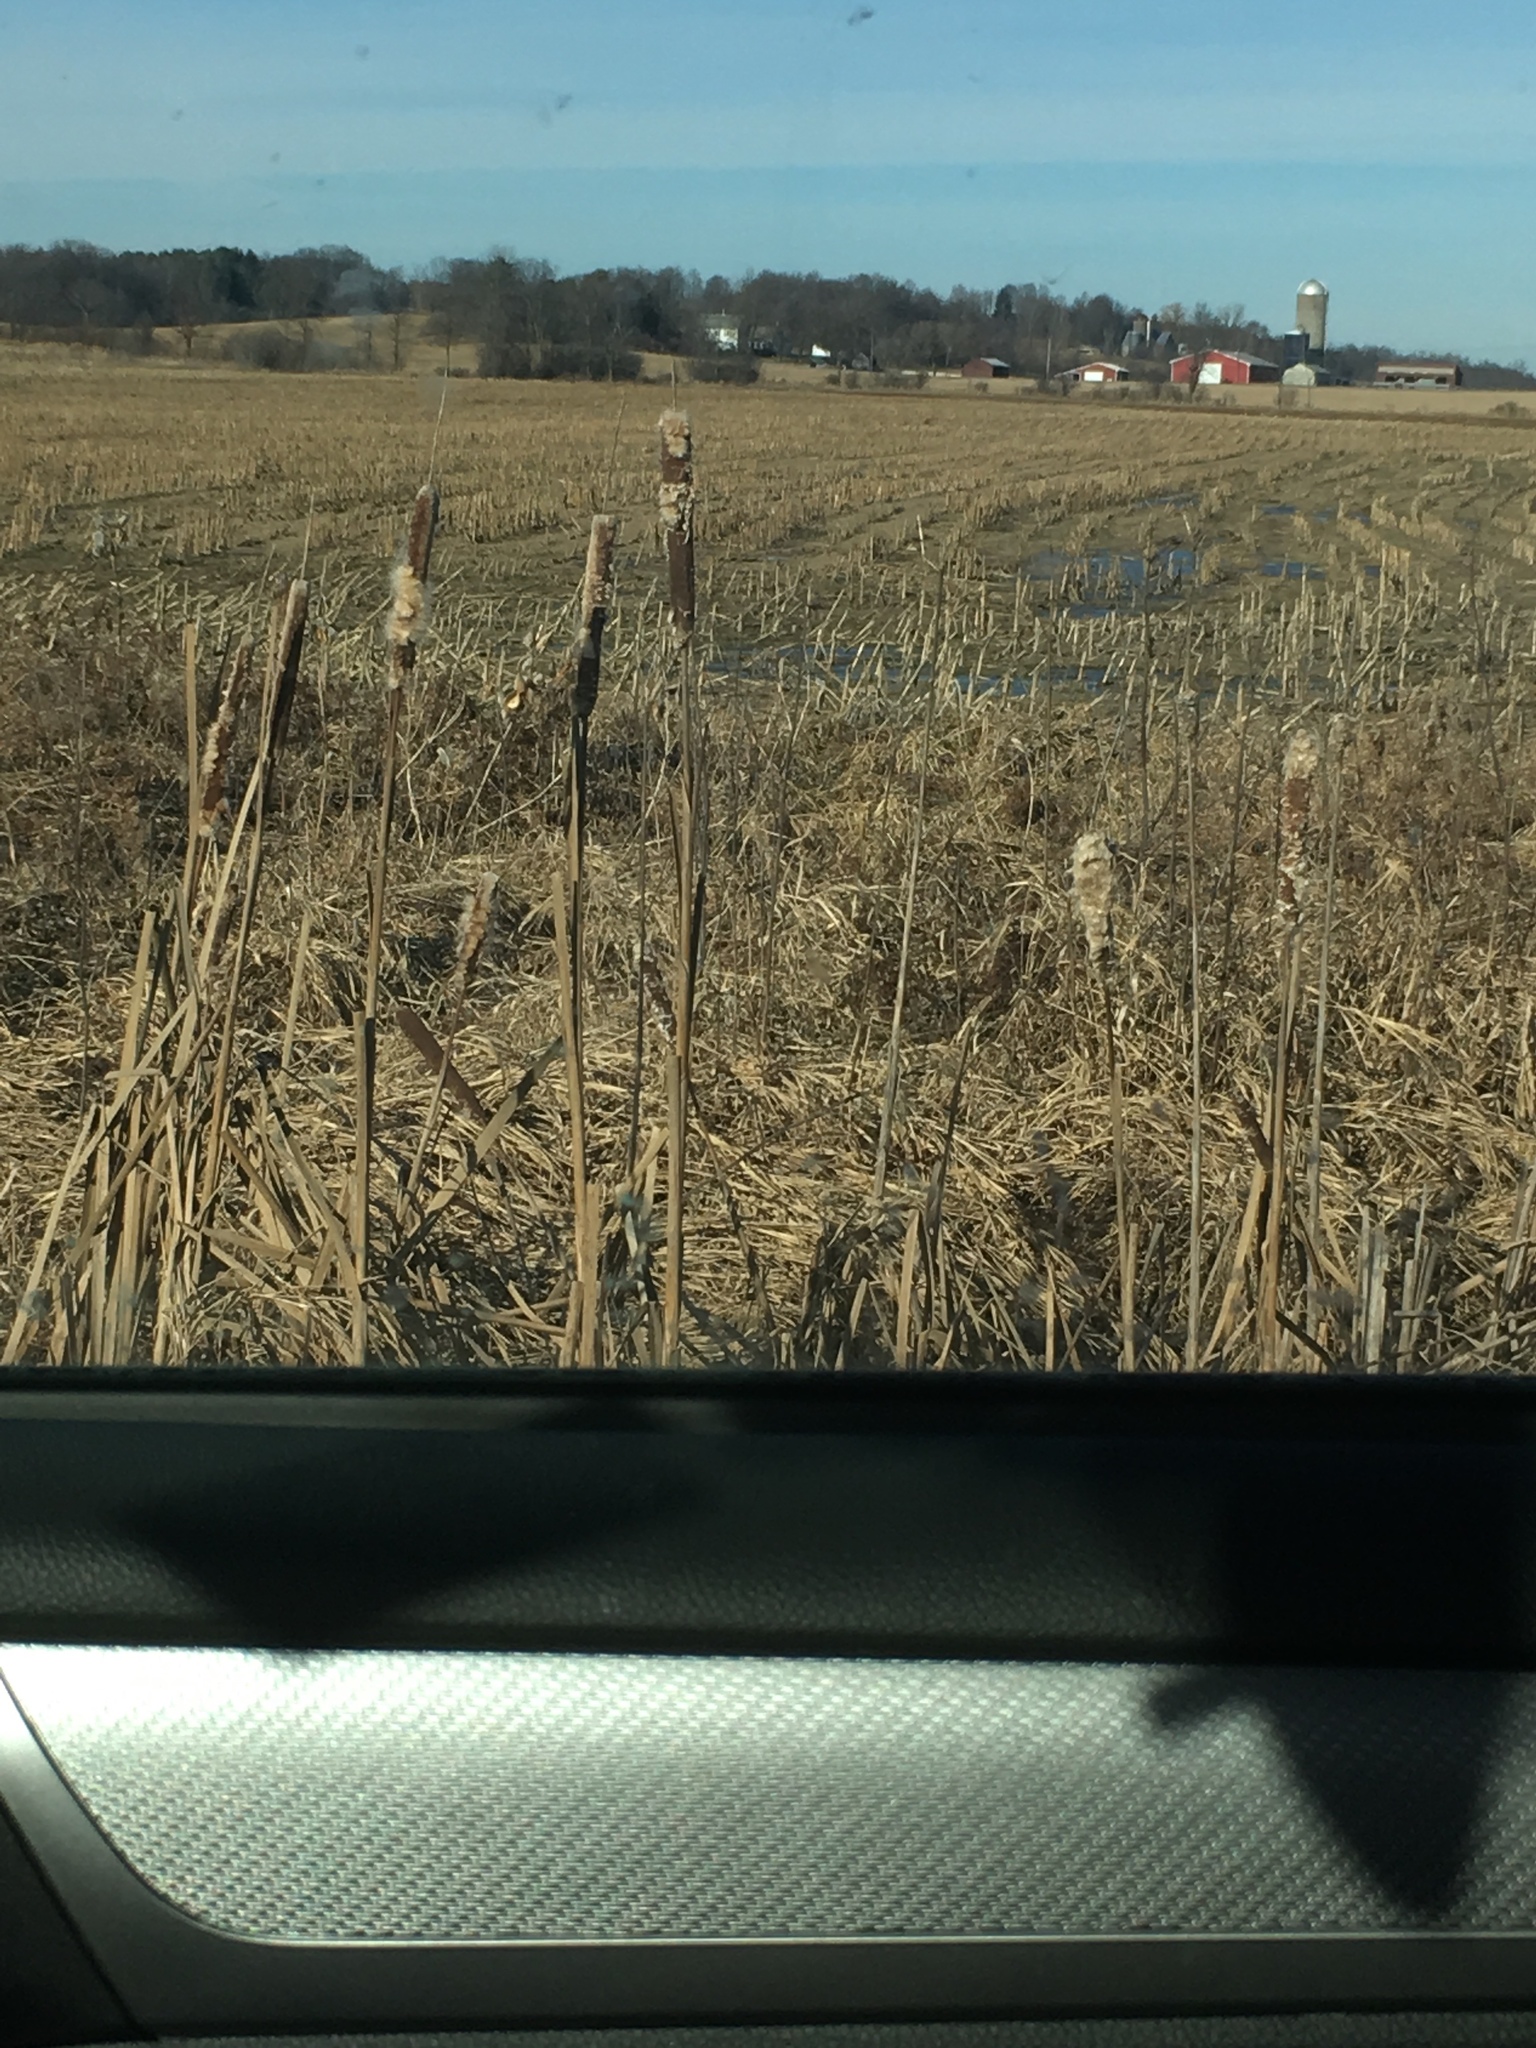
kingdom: Plantae
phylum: Tracheophyta
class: Liliopsida
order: Poales
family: Typhaceae
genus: Typha
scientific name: Typha
